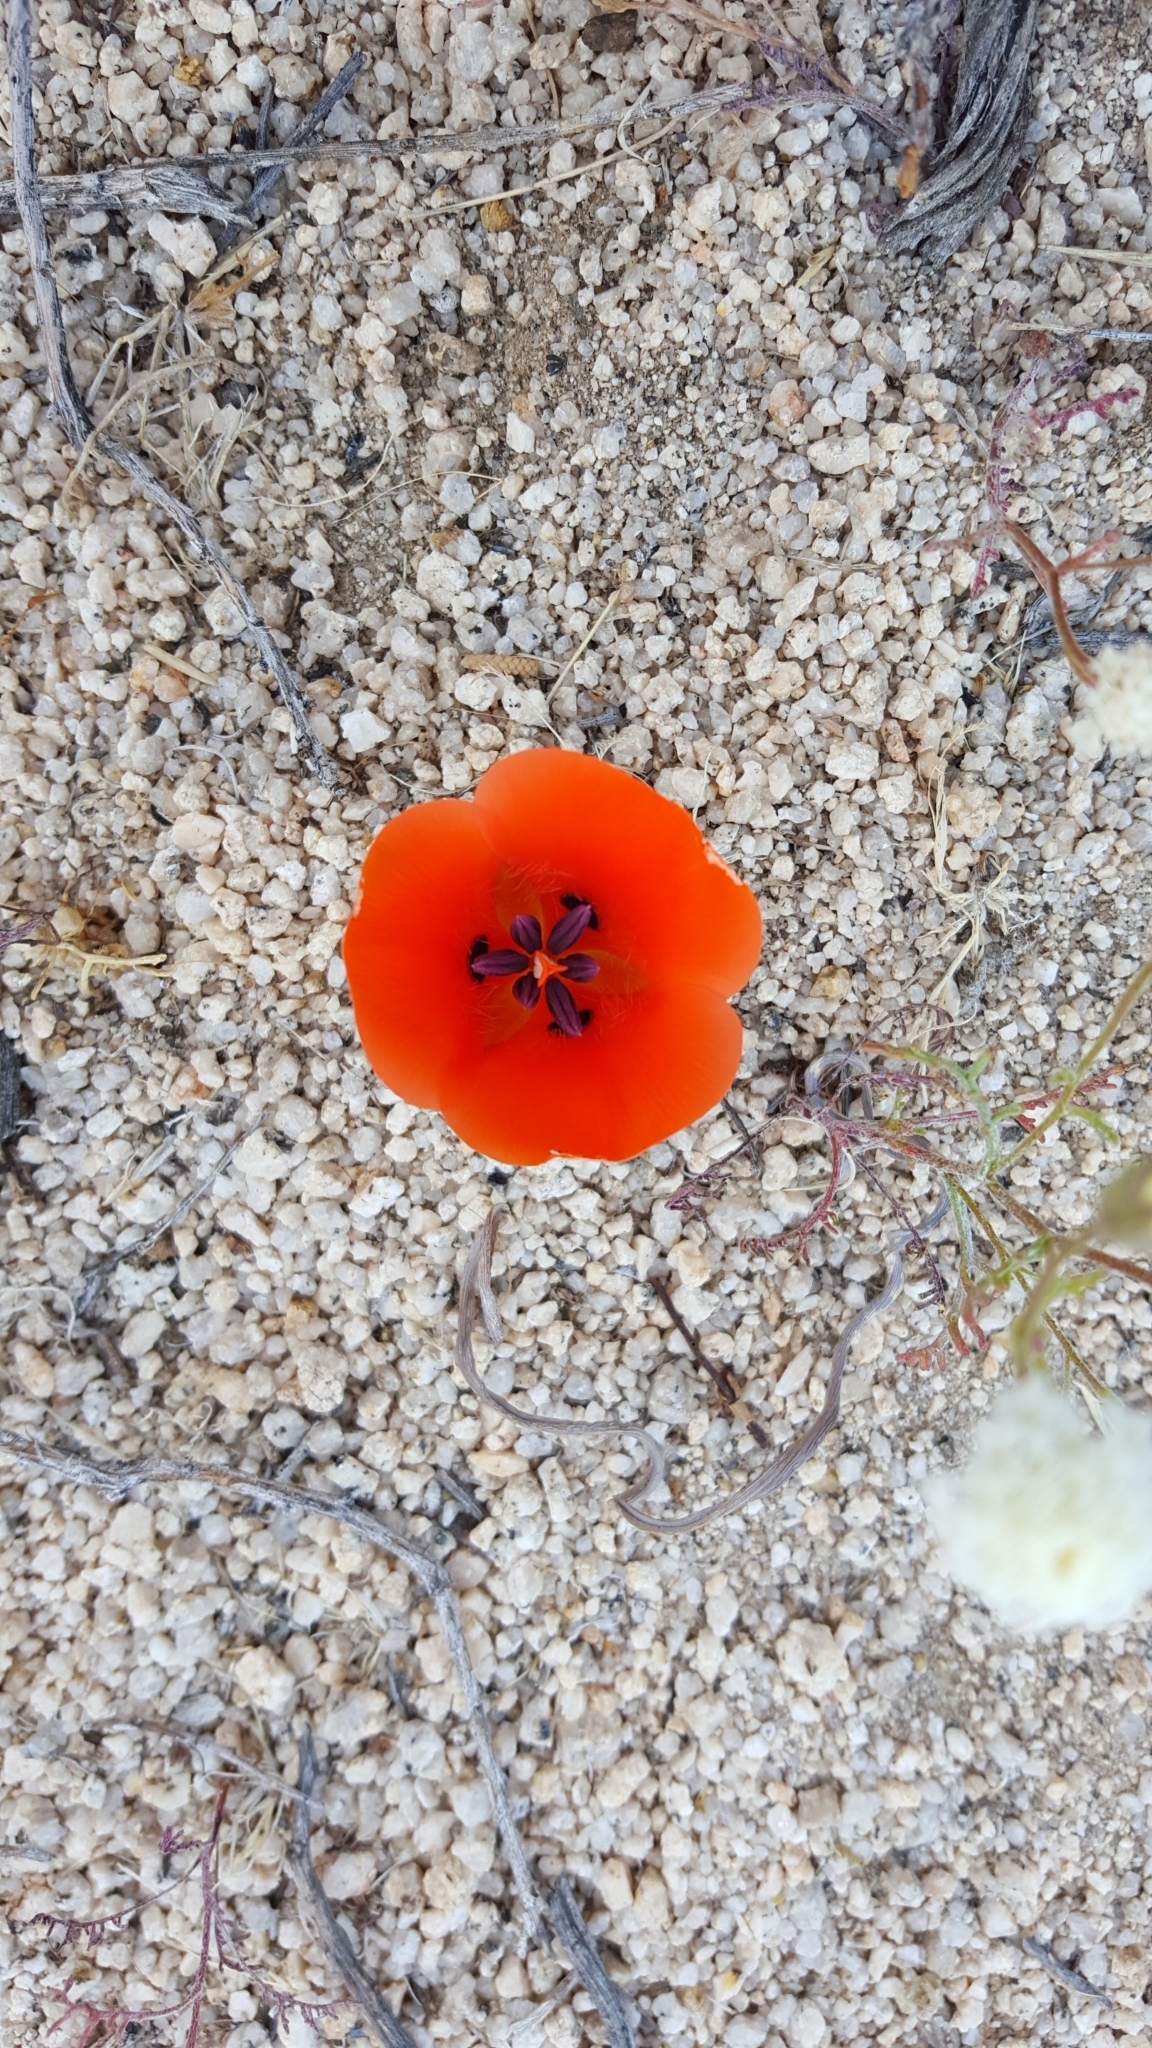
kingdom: Plantae
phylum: Tracheophyta
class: Liliopsida
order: Liliales
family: Liliaceae
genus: Calochortus
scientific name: Calochortus kennedyi
